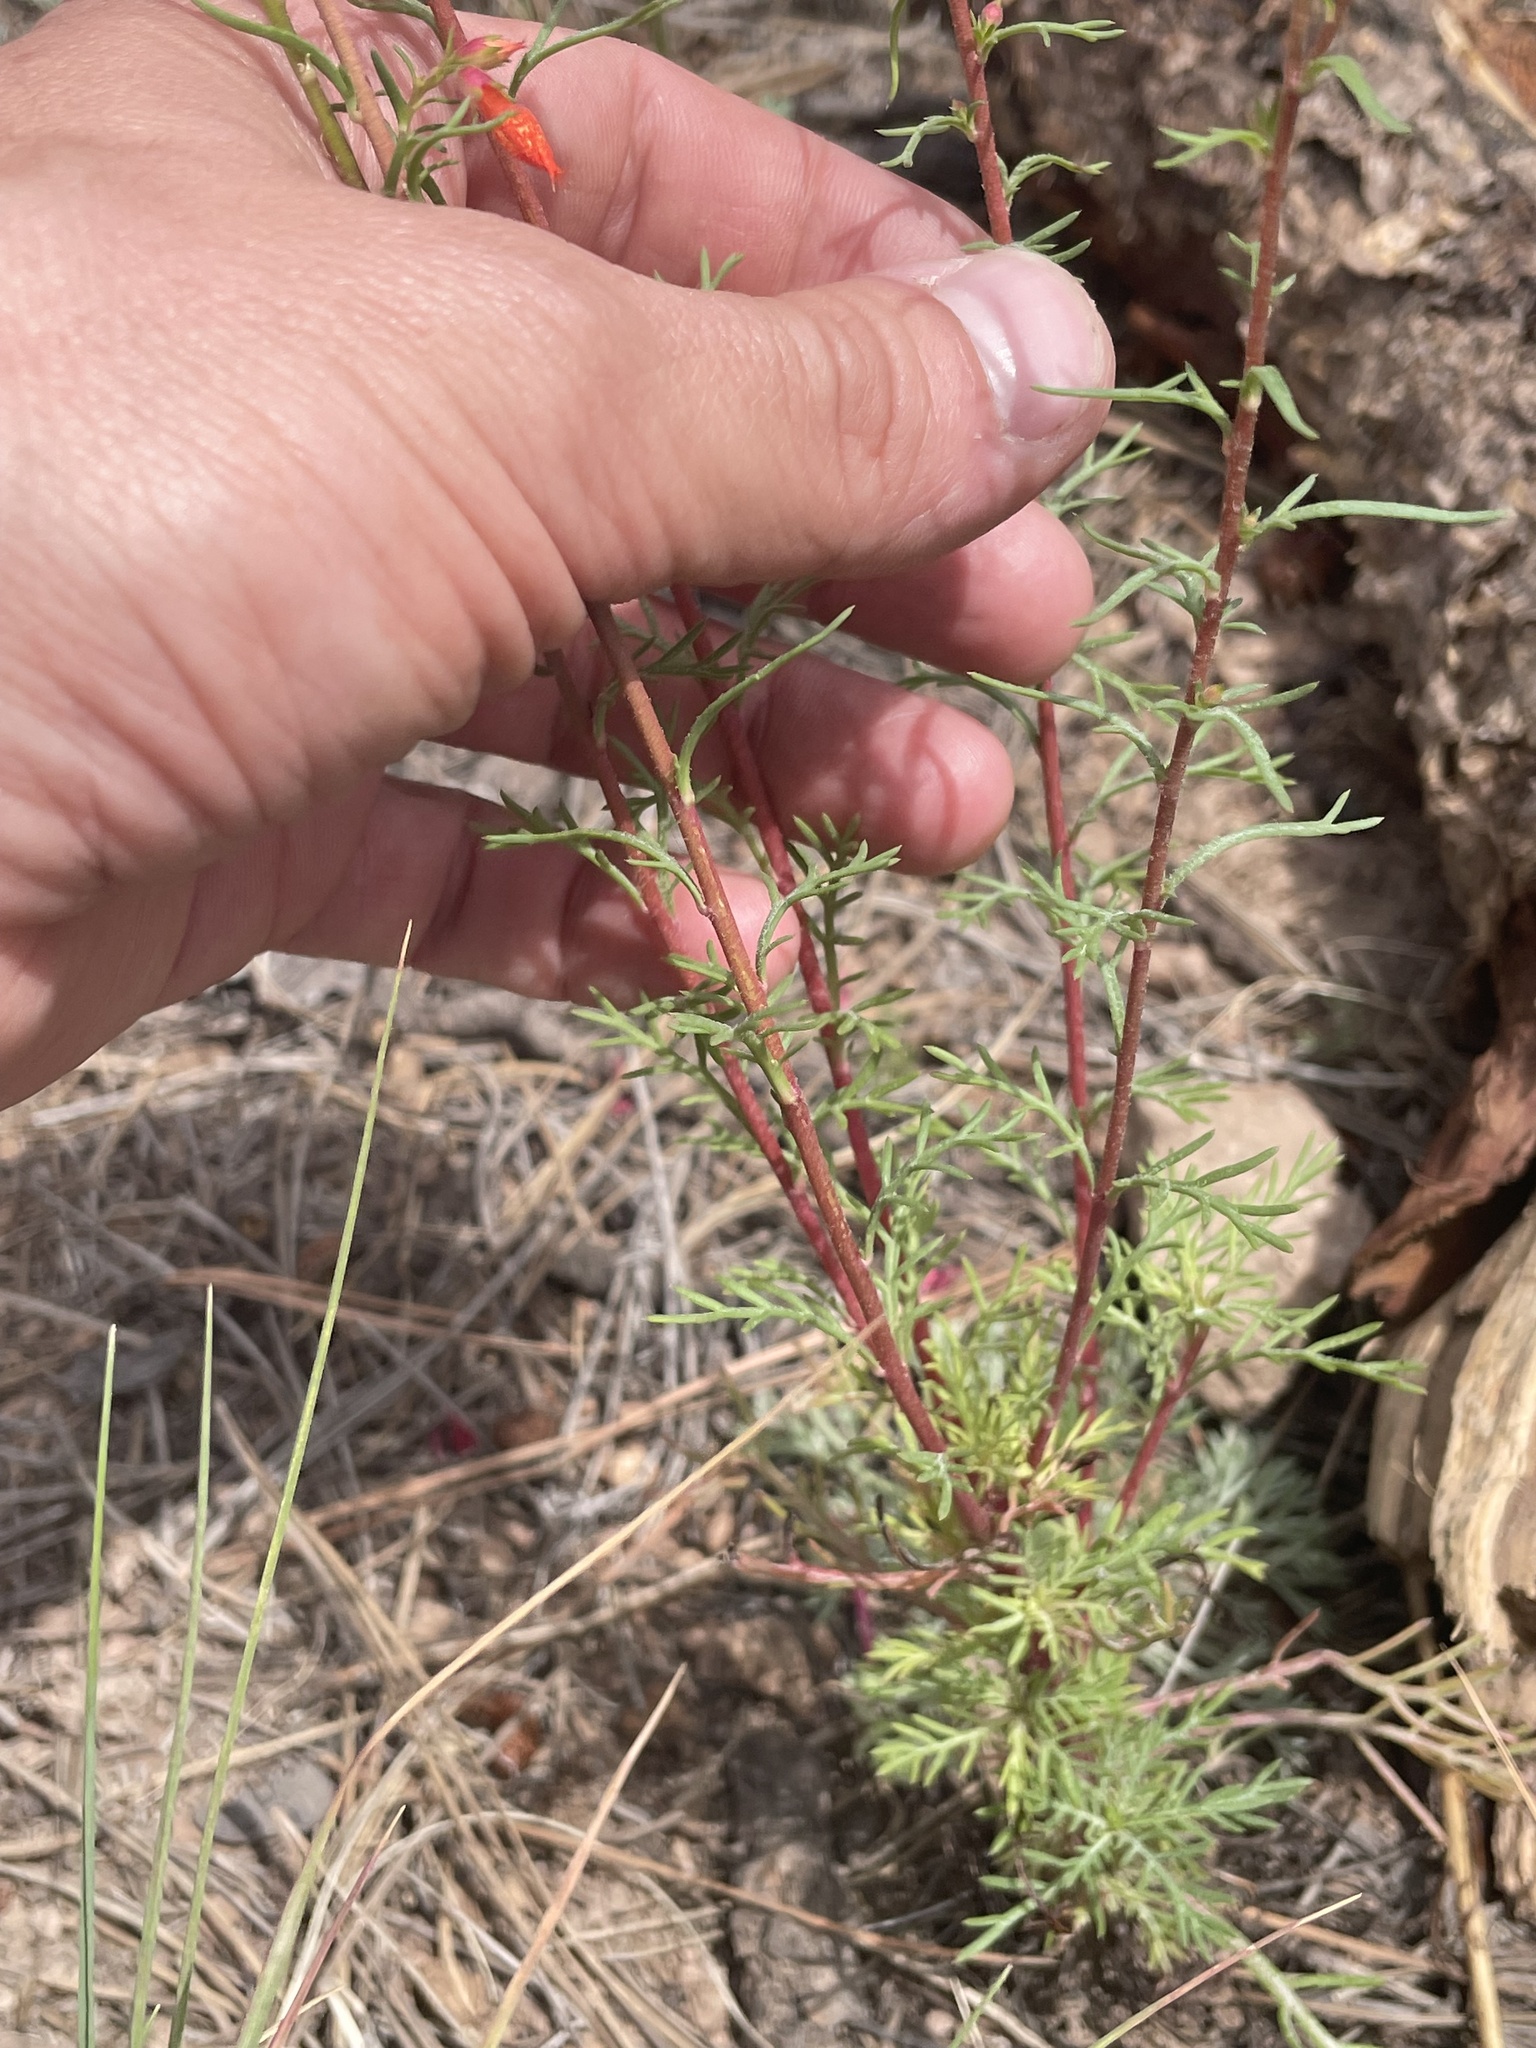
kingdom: Plantae
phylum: Tracheophyta
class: Magnoliopsida
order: Ericales
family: Polemoniaceae
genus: Ipomopsis
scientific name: Ipomopsis aggregata
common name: Scarlet gilia
